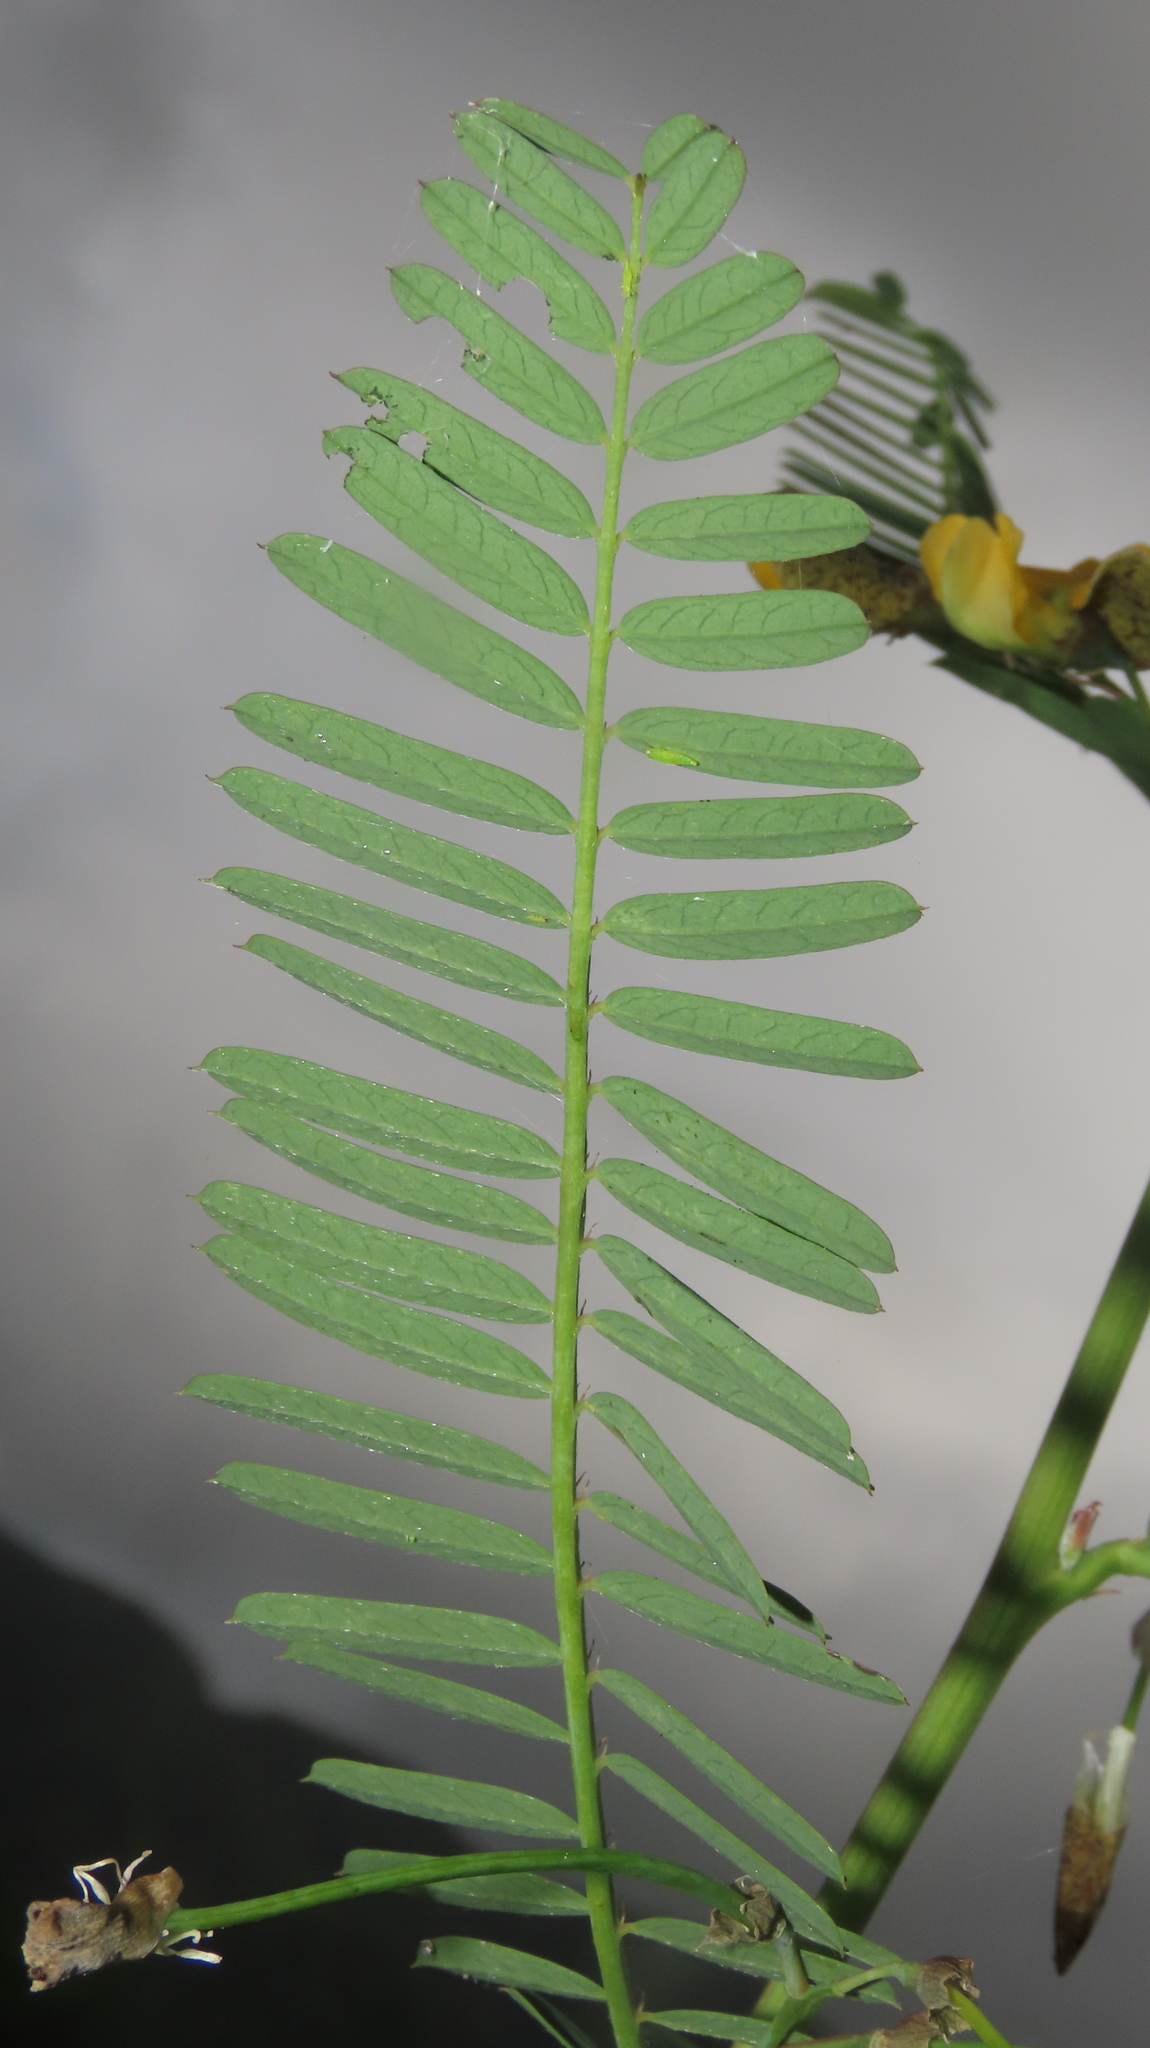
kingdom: Plantae
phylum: Tracheophyta
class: Magnoliopsida
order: Fabales
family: Fabaceae
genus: Sesbania
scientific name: Sesbania cannabina
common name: Canicha
